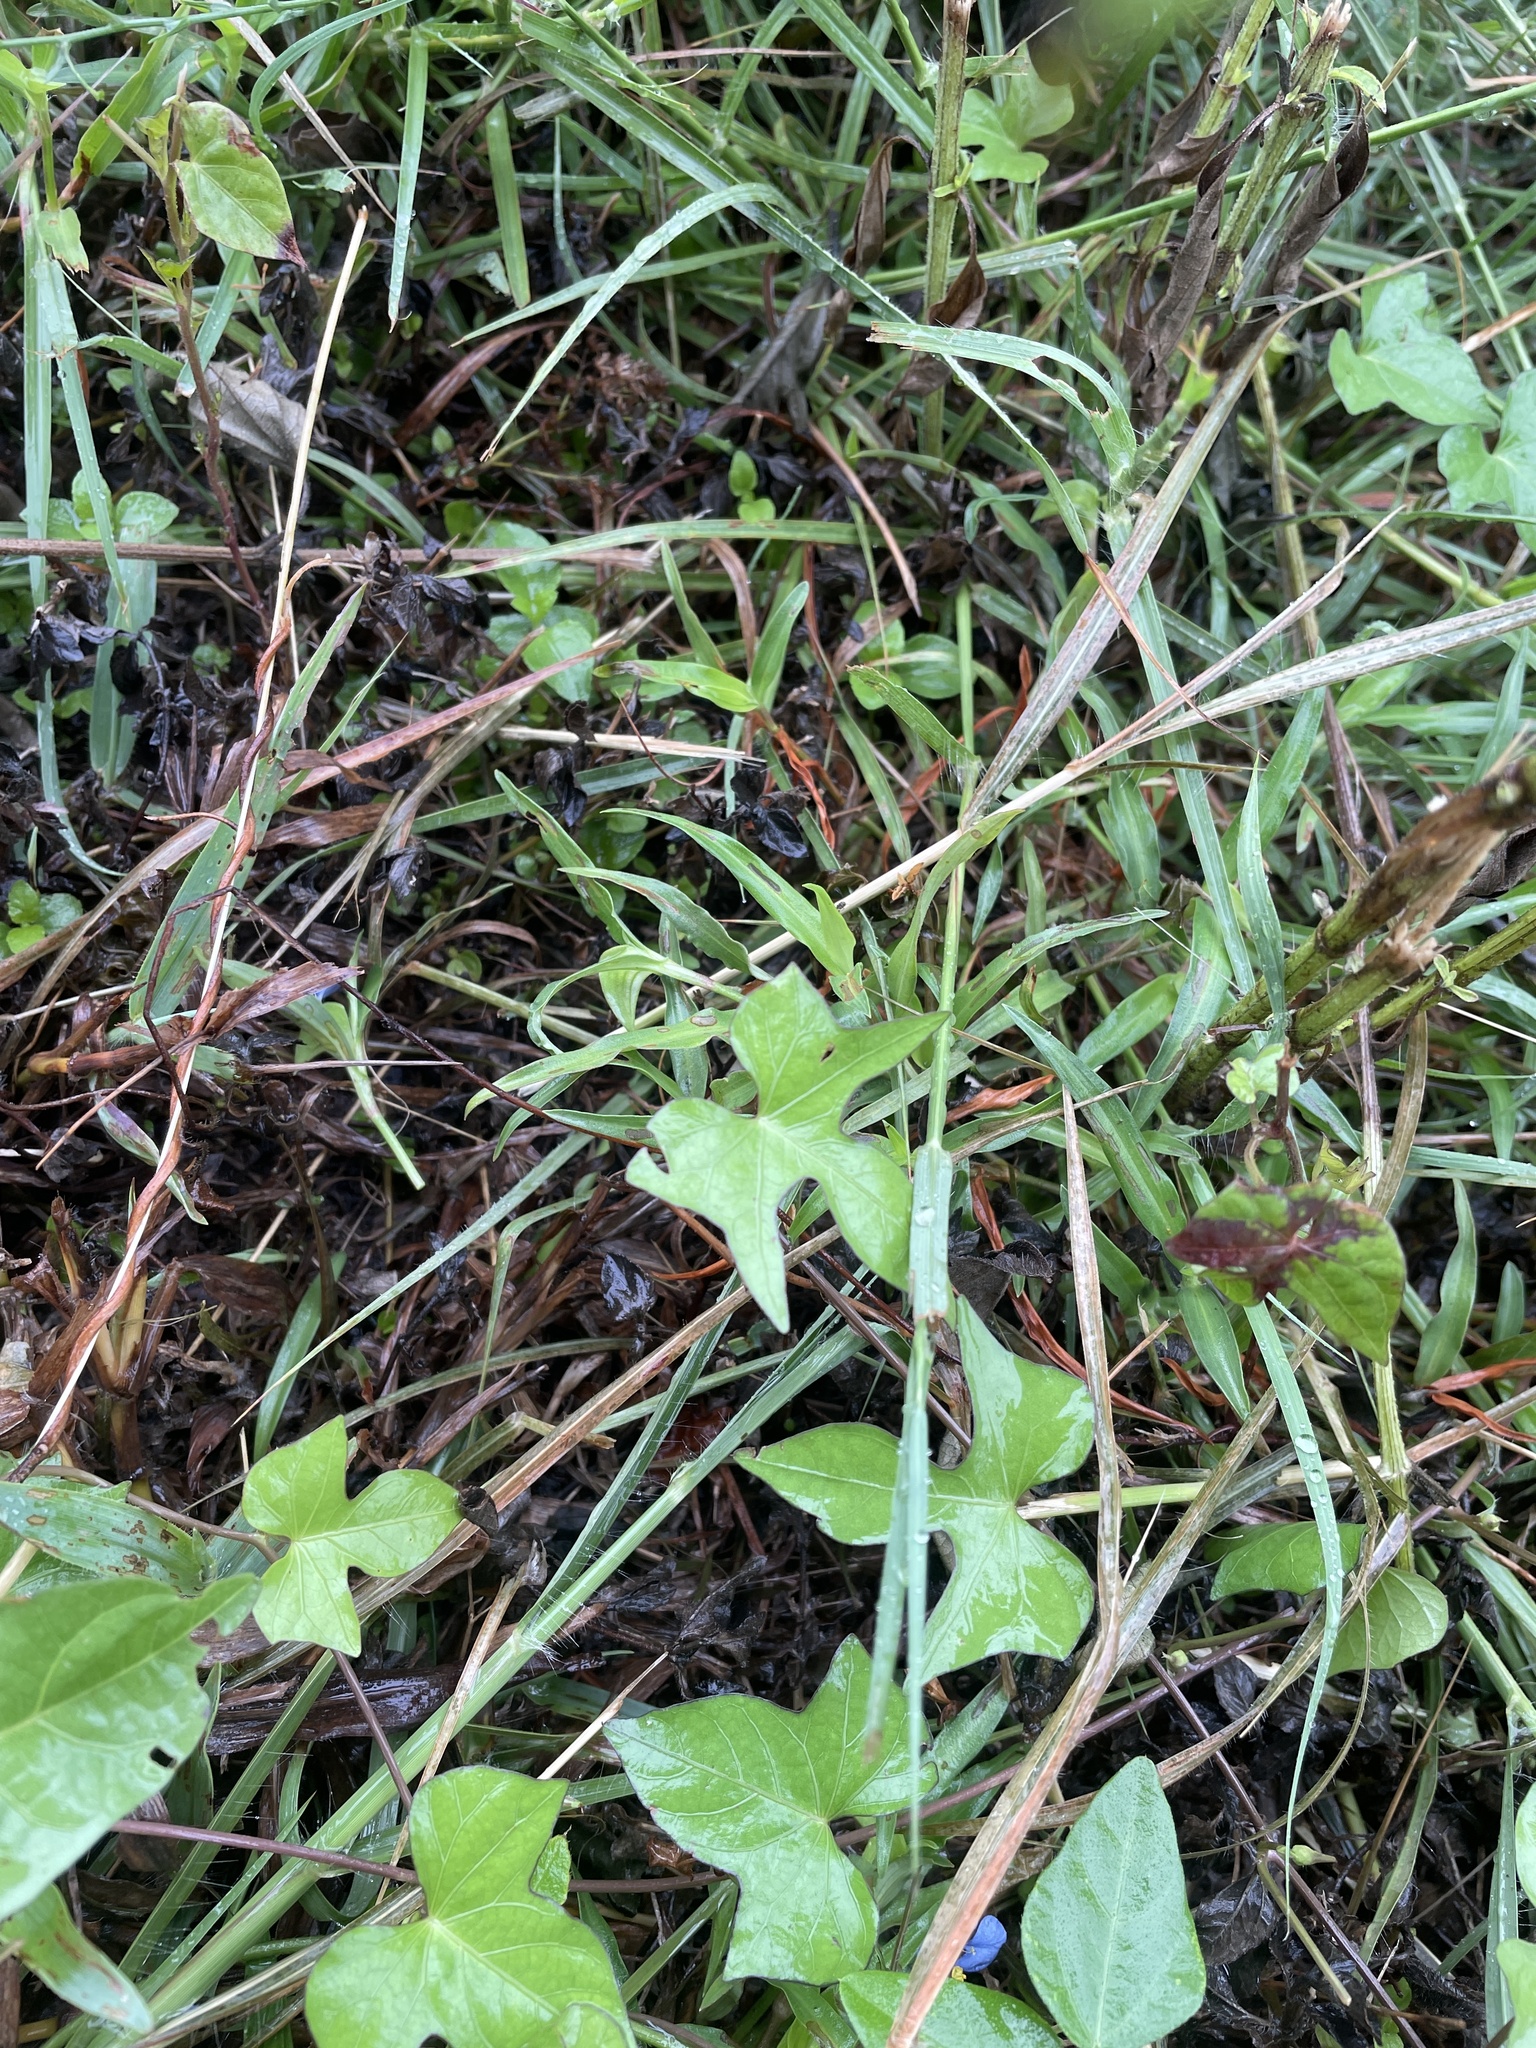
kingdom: Plantae
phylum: Tracheophyta
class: Liliopsida
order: Commelinales
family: Commelinaceae
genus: Commelina
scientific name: Commelina erecta
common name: Blousel blommetjie
